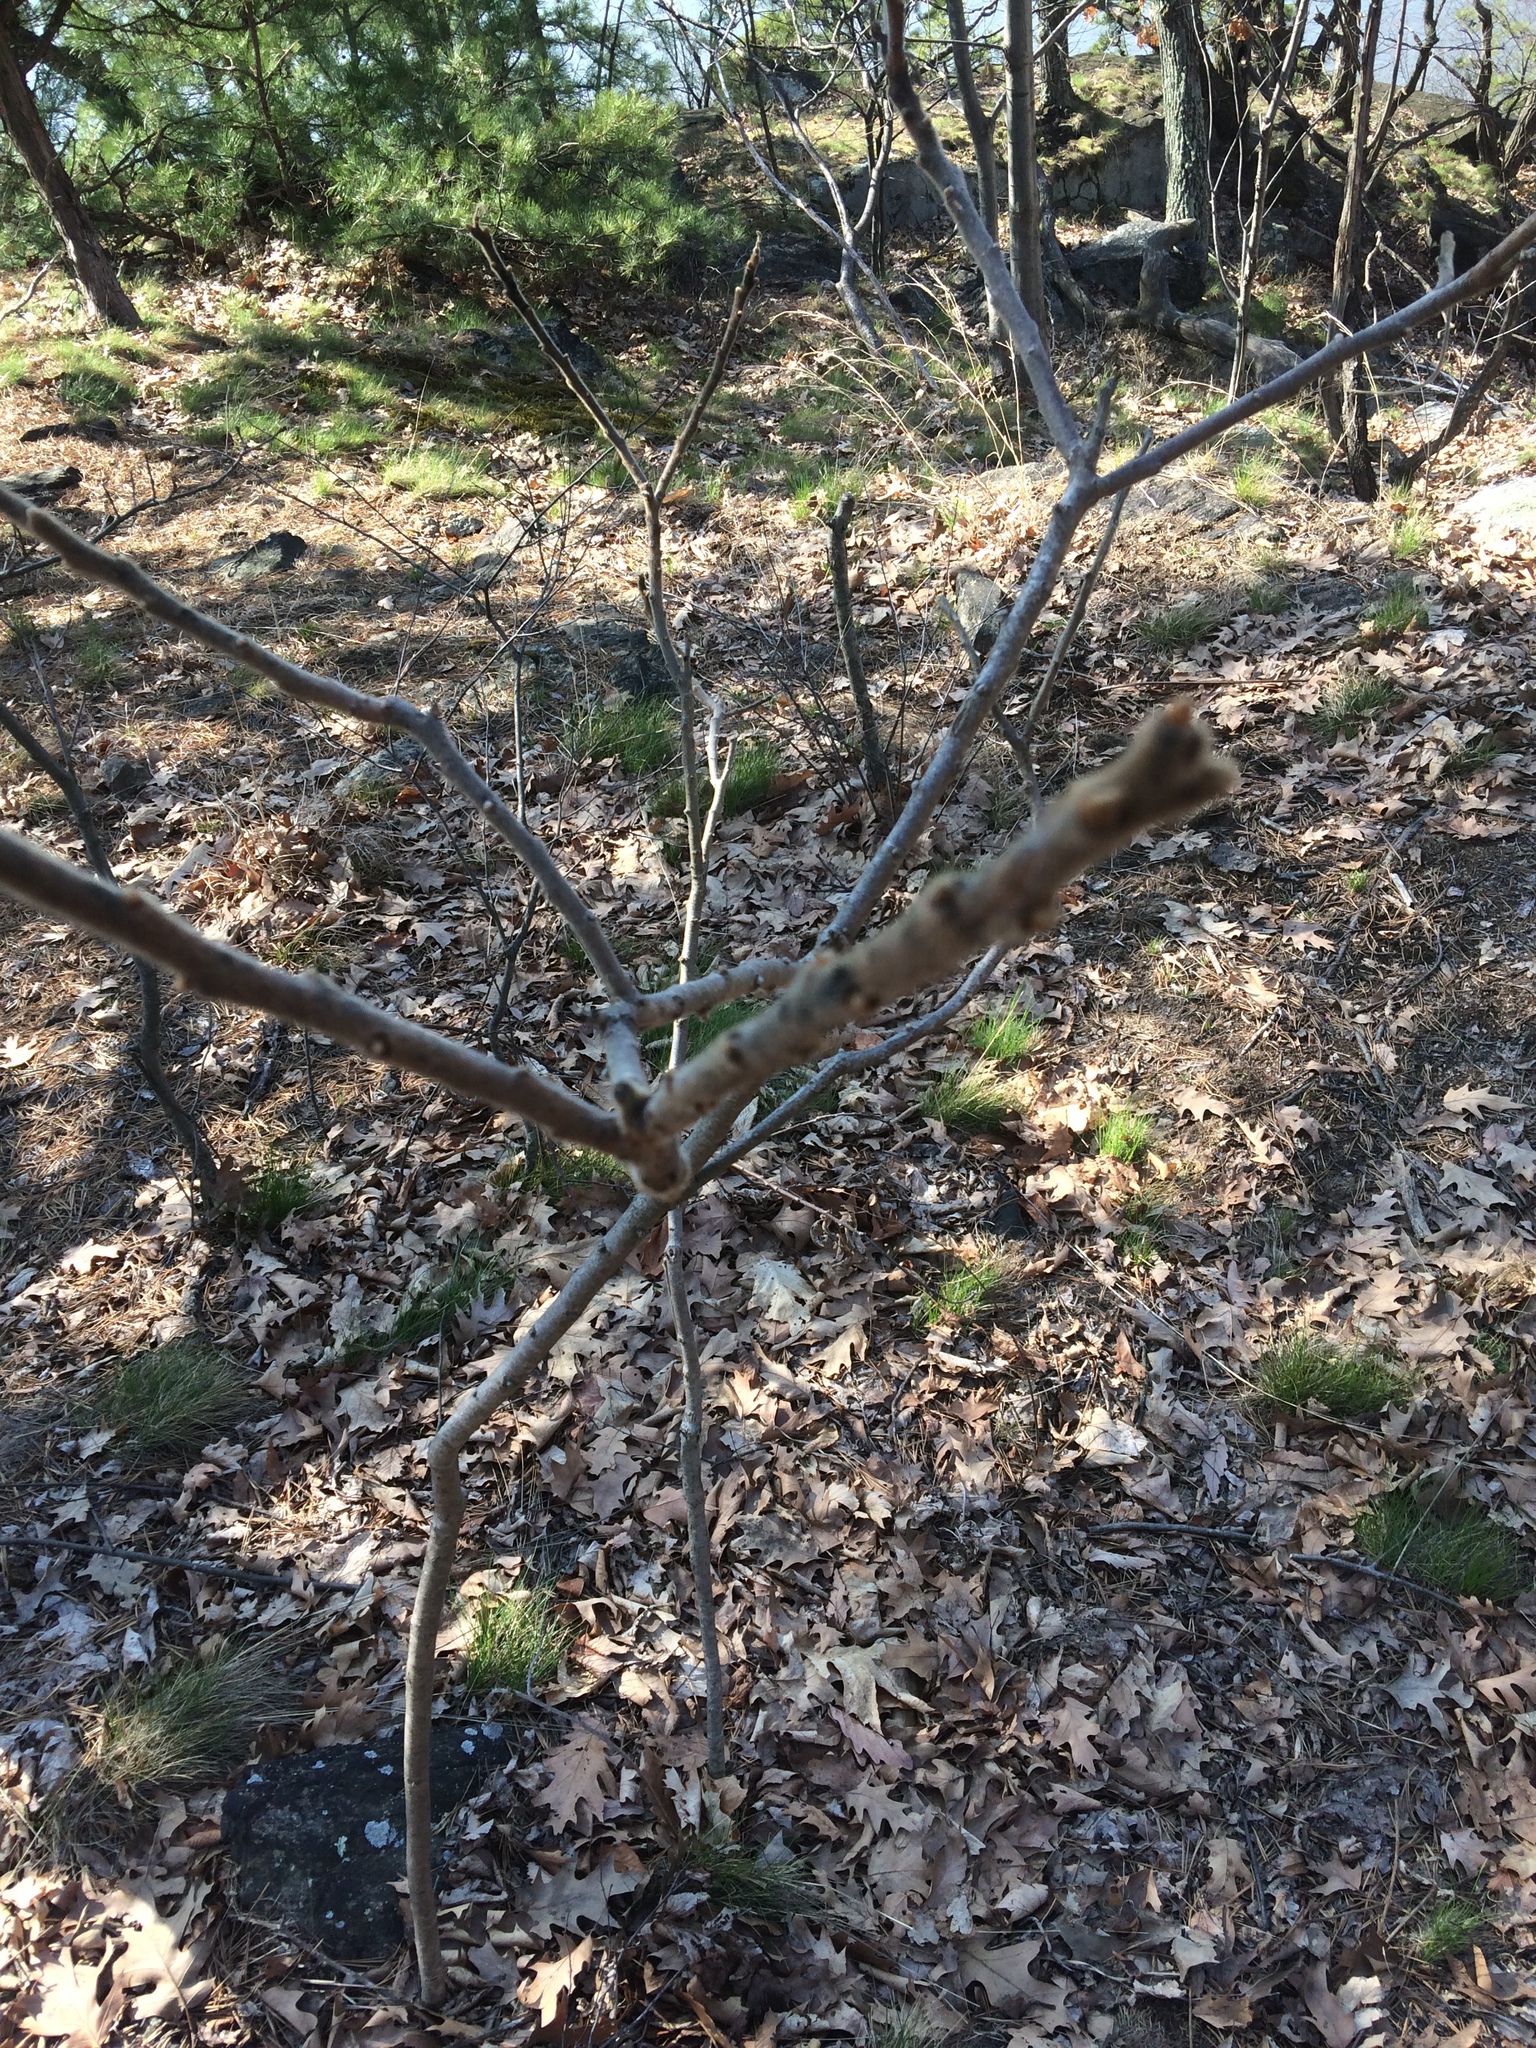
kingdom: Plantae
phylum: Tracheophyta
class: Magnoliopsida
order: Sapindales
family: Anacardiaceae
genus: Rhus
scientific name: Rhus typhina
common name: Staghorn sumac
